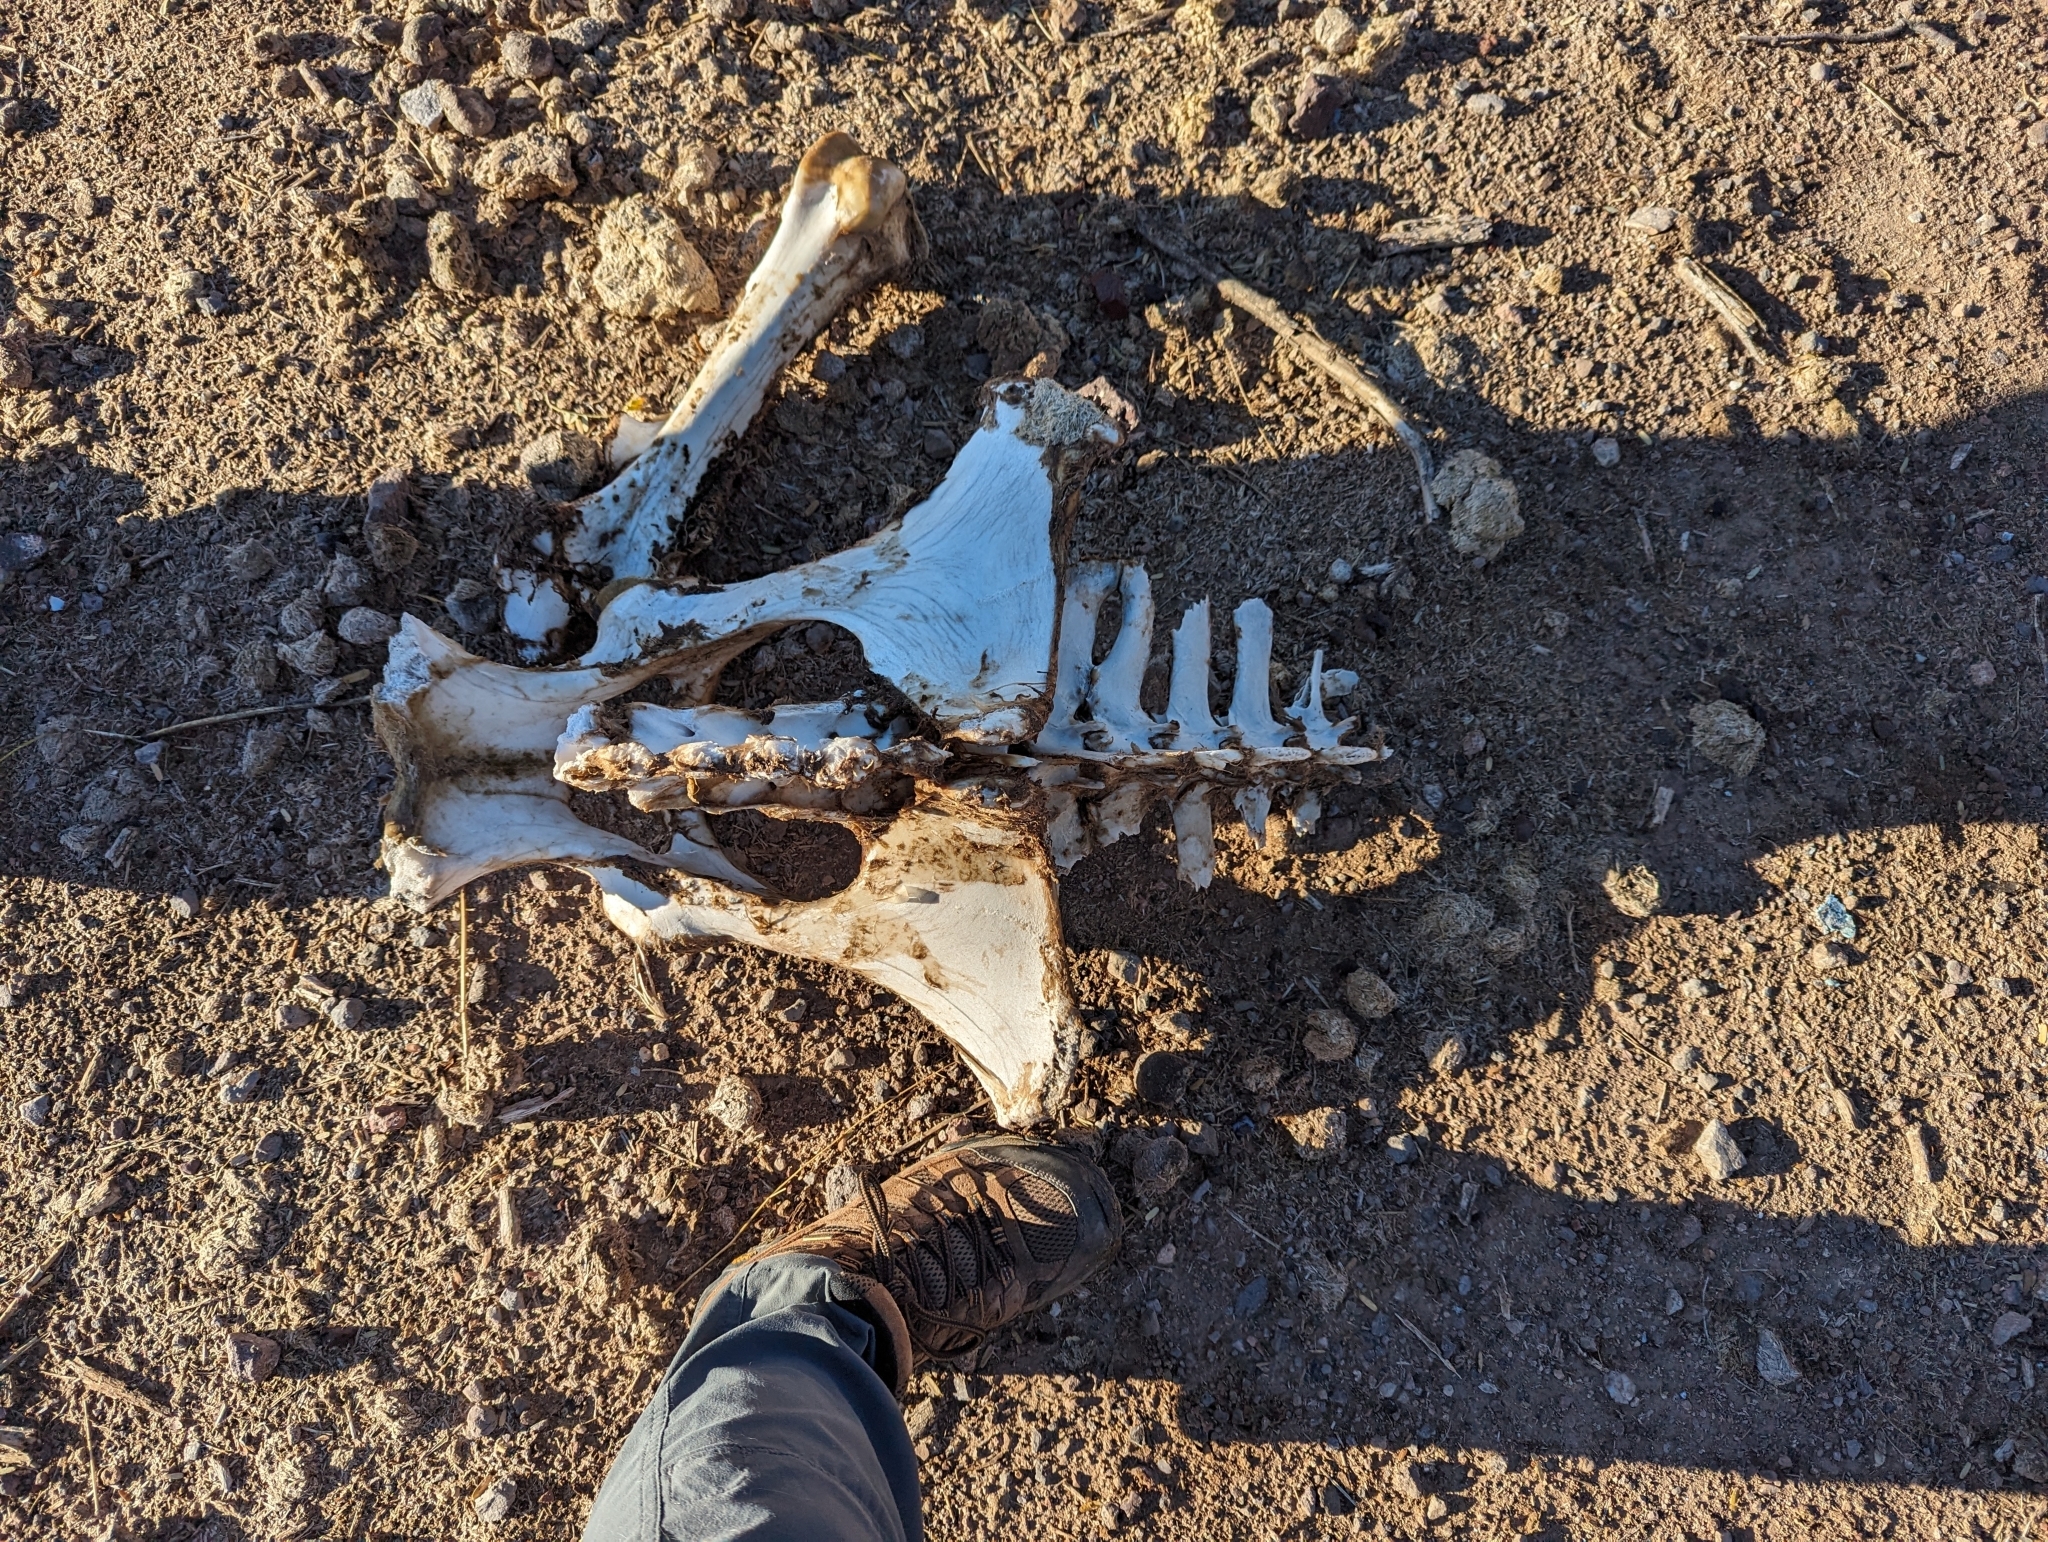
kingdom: Animalia
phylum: Chordata
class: Mammalia
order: Perissodactyla
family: Equidae
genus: Equus
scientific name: Equus asinus
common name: Ass
